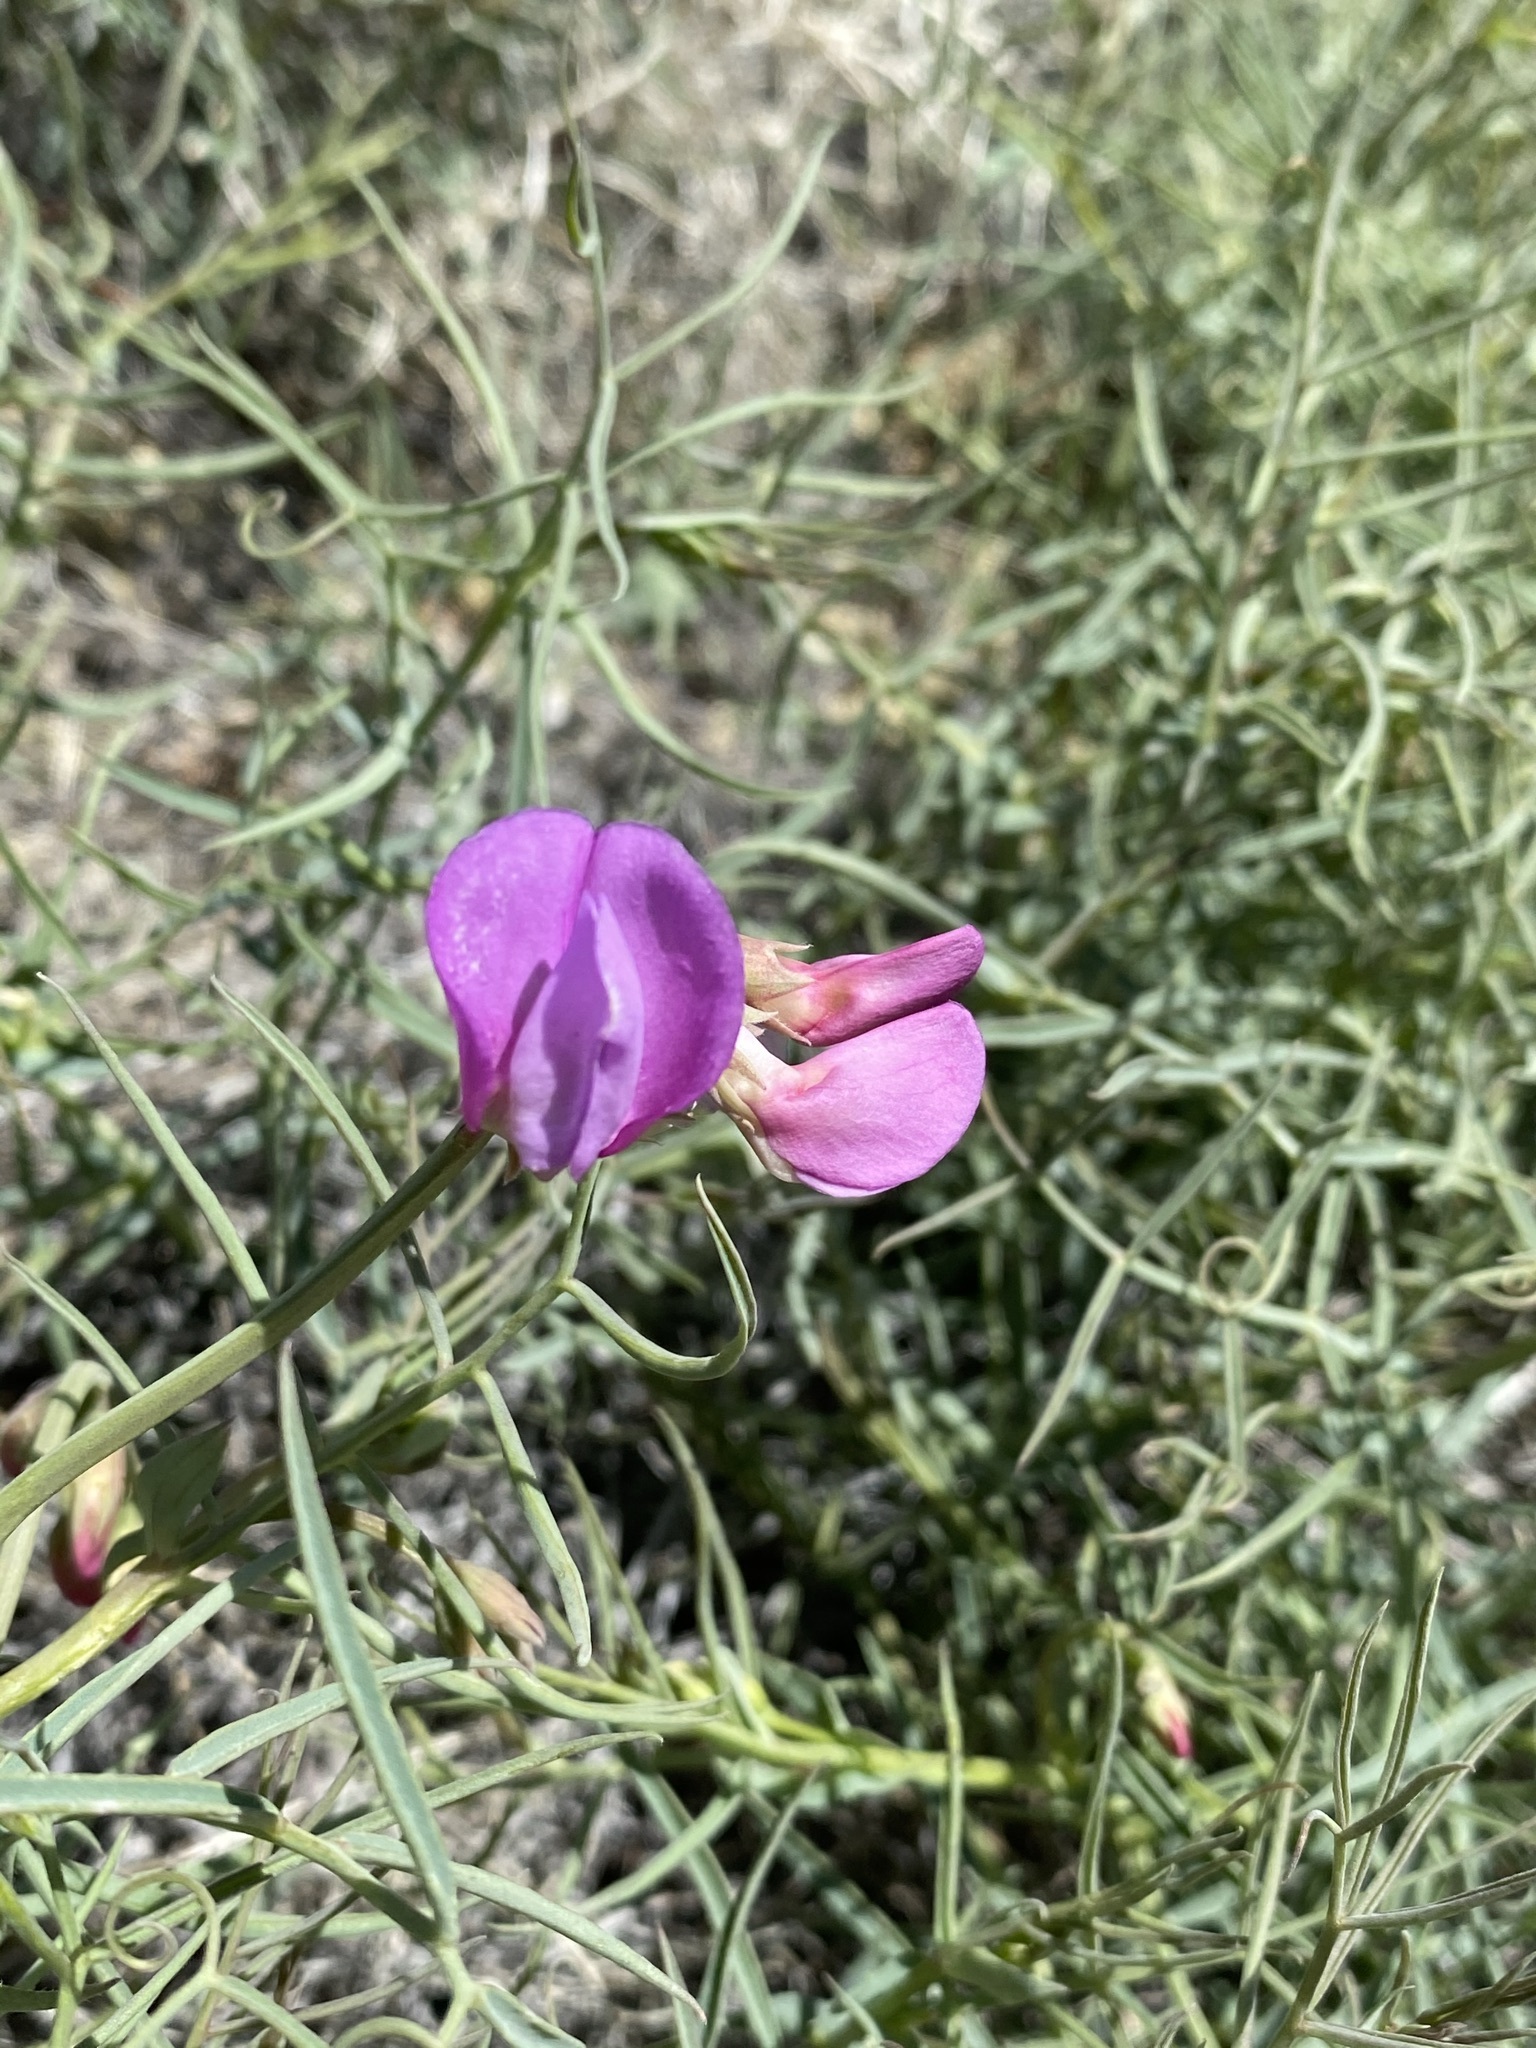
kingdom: Plantae
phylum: Tracheophyta
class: Magnoliopsida
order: Fabales
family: Fabaceae
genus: Lathyrus
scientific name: Lathyrus pauciflorus
